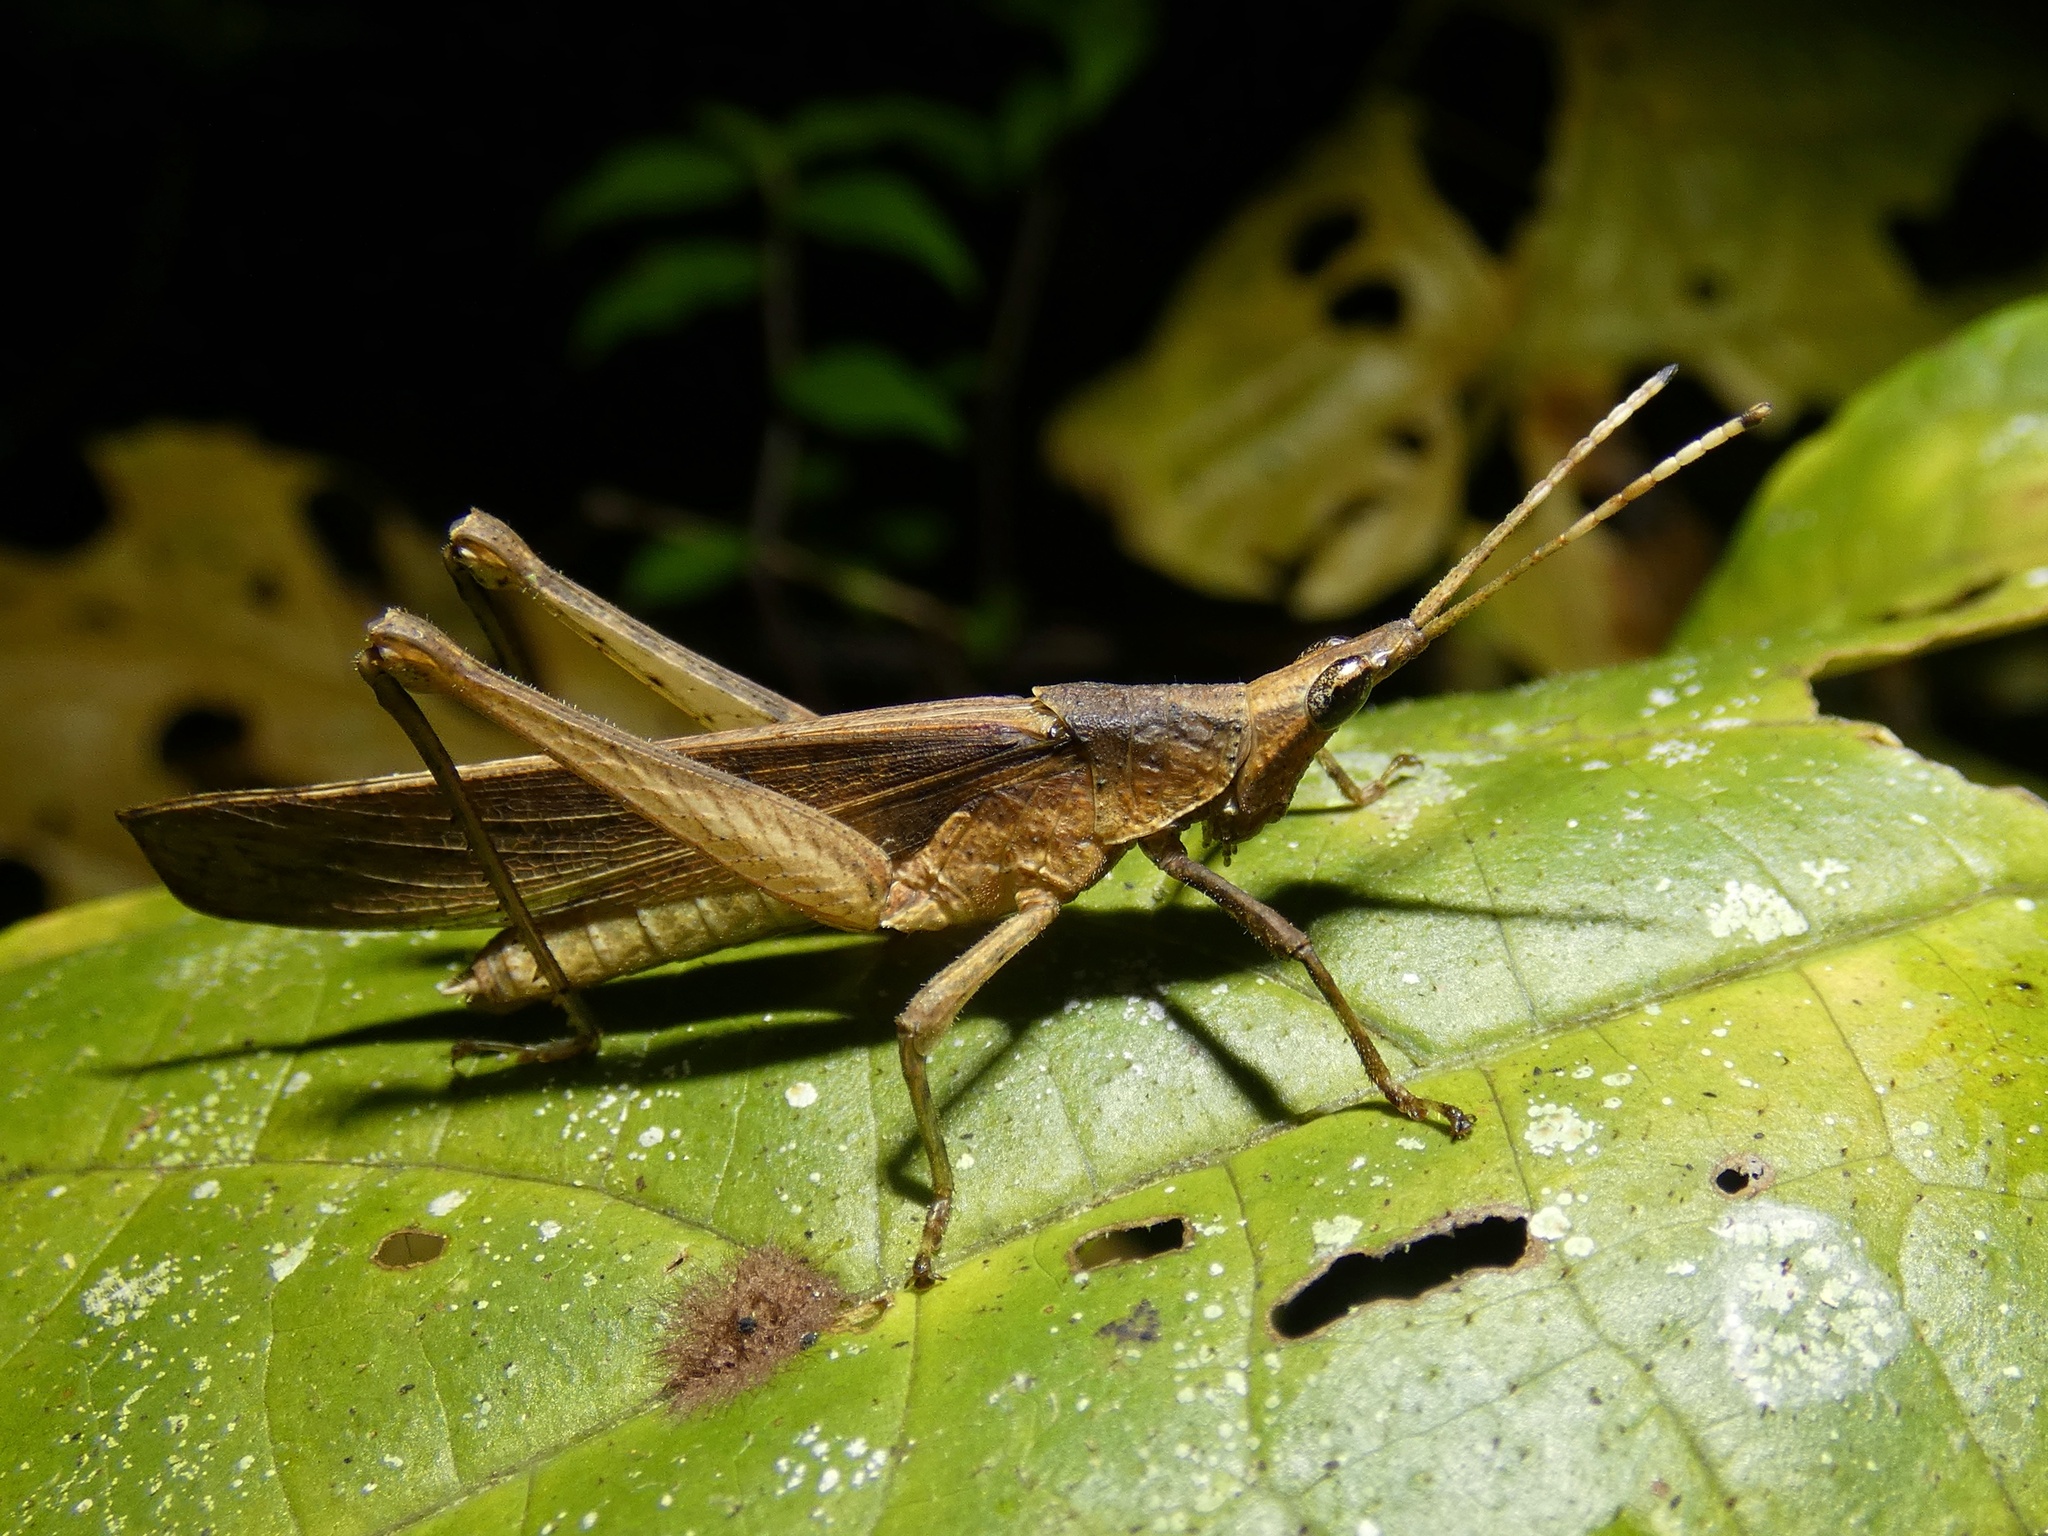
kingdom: Animalia
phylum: Arthropoda
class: Insecta
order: Orthoptera
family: Pyrgomorphidae
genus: Desmoptera
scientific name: Desmoptera truncatipennis
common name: Large forest pyrgomorph
